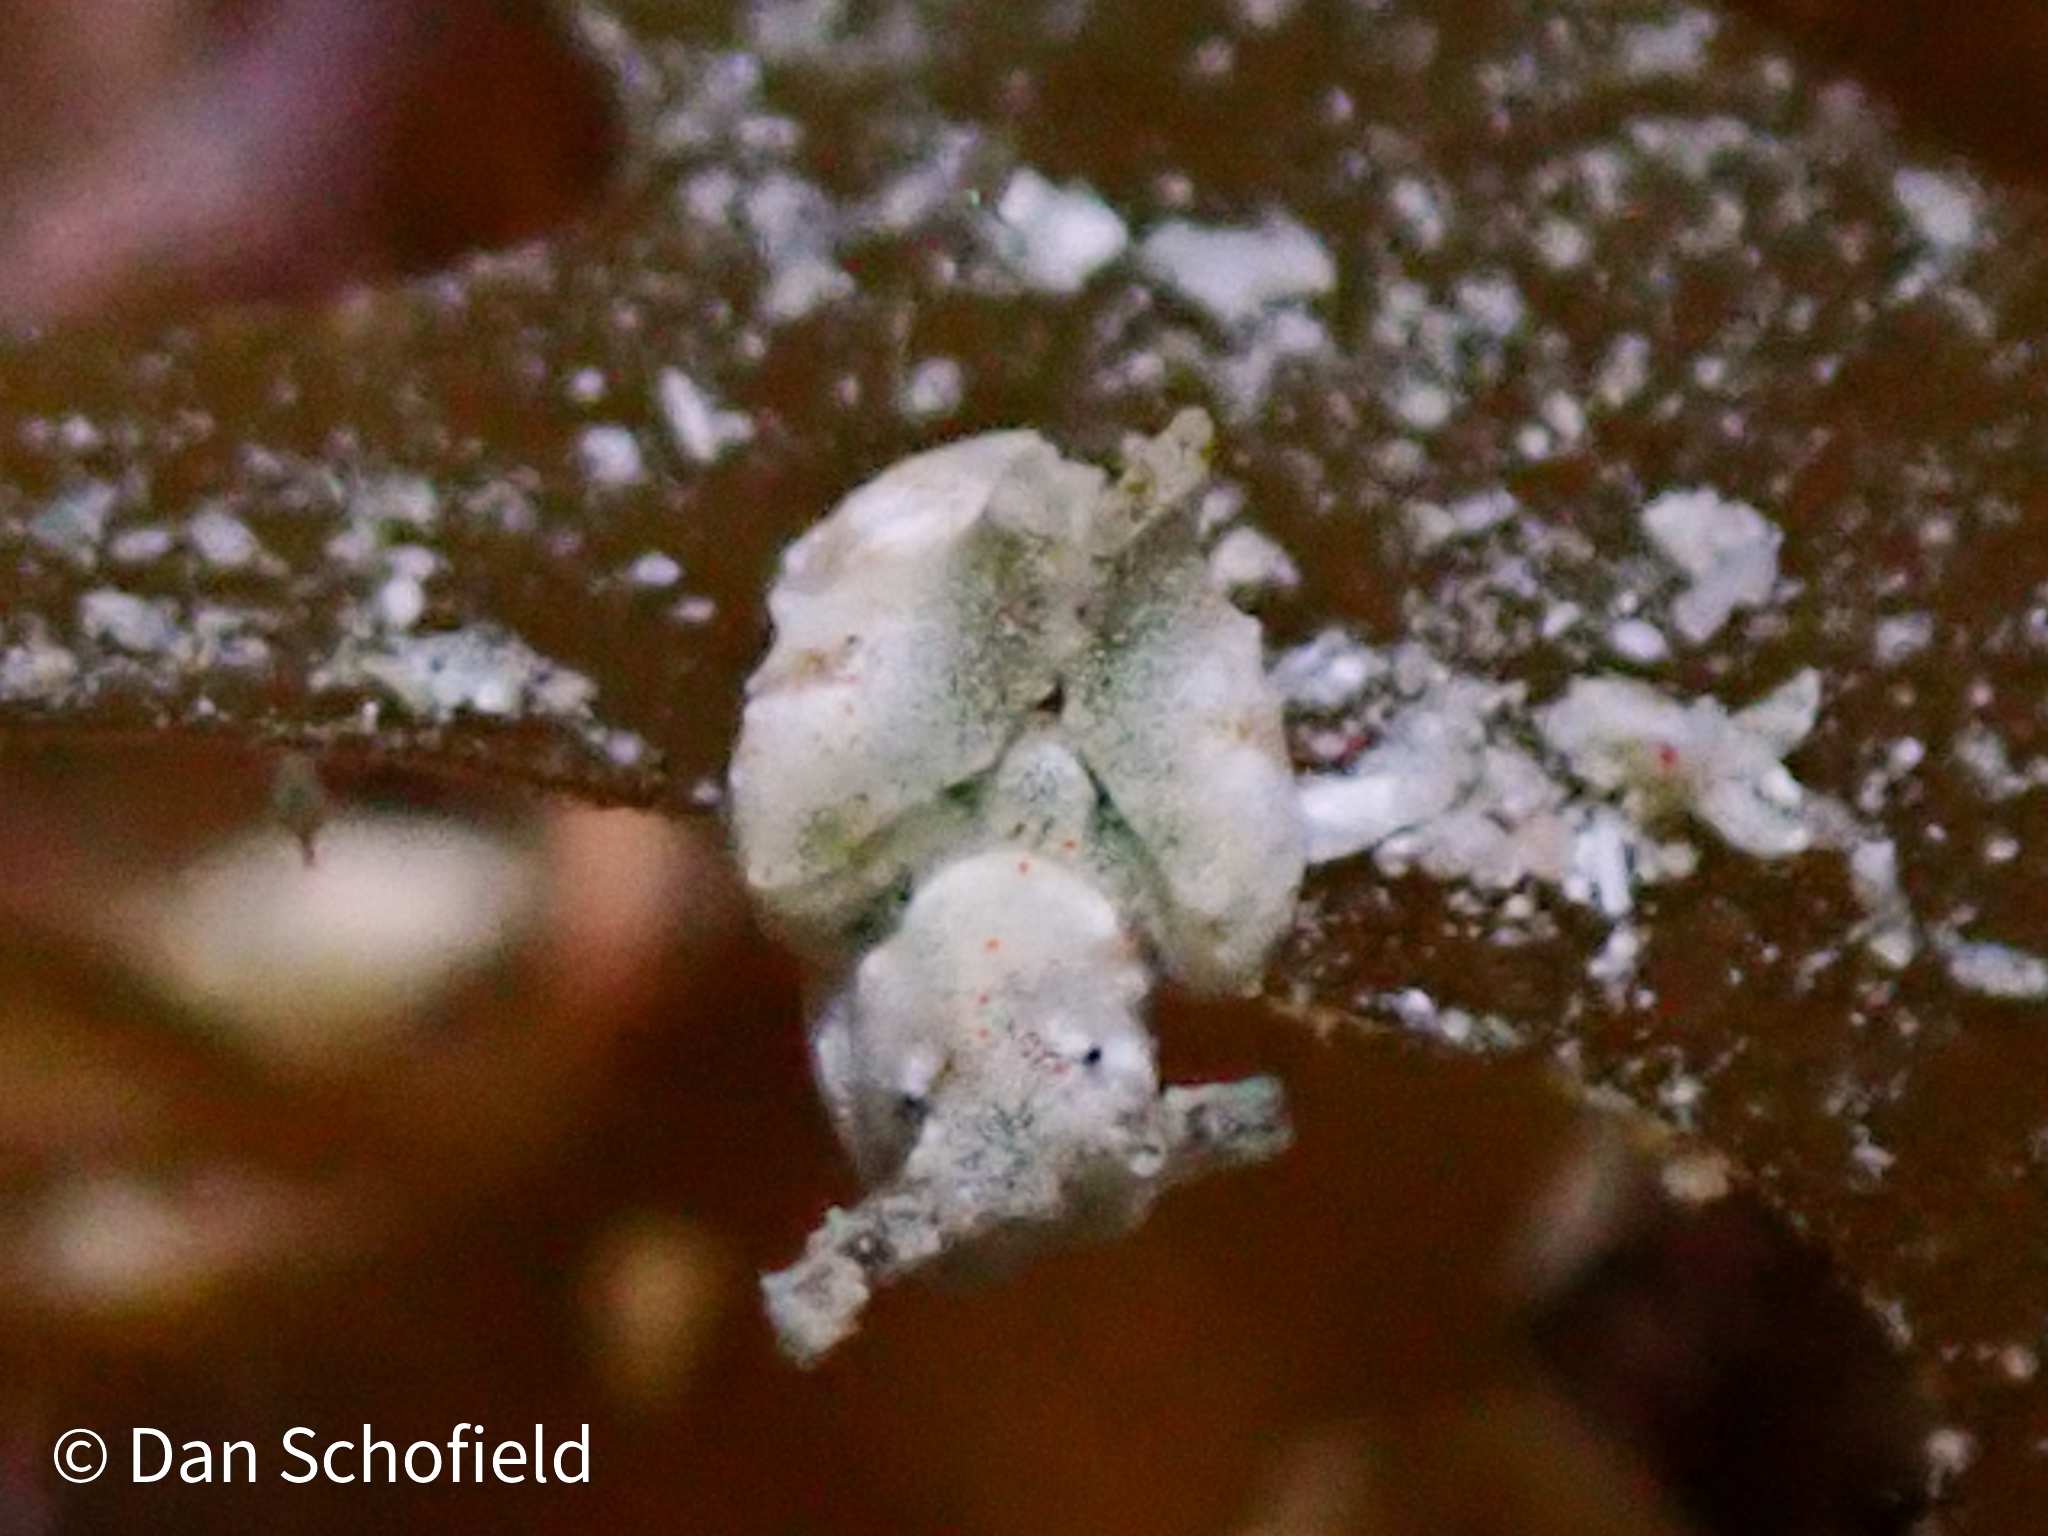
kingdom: Animalia
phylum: Mollusca
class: Gastropoda
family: Plakobranchidae
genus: Elysia
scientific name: Elysia cornigera
